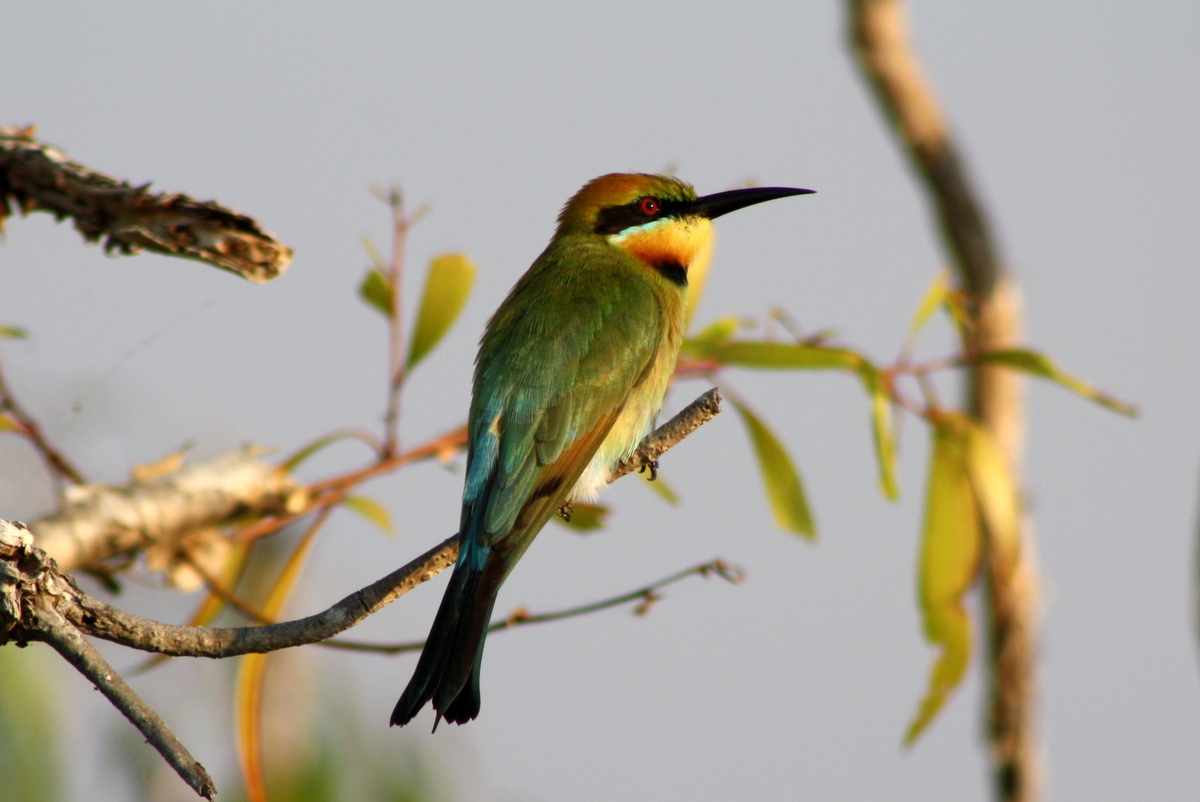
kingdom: Animalia
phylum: Chordata
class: Aves
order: Coraciiformes
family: Meropidae
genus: Merops
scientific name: Merops ornatus
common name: Rainbow bee-eater
